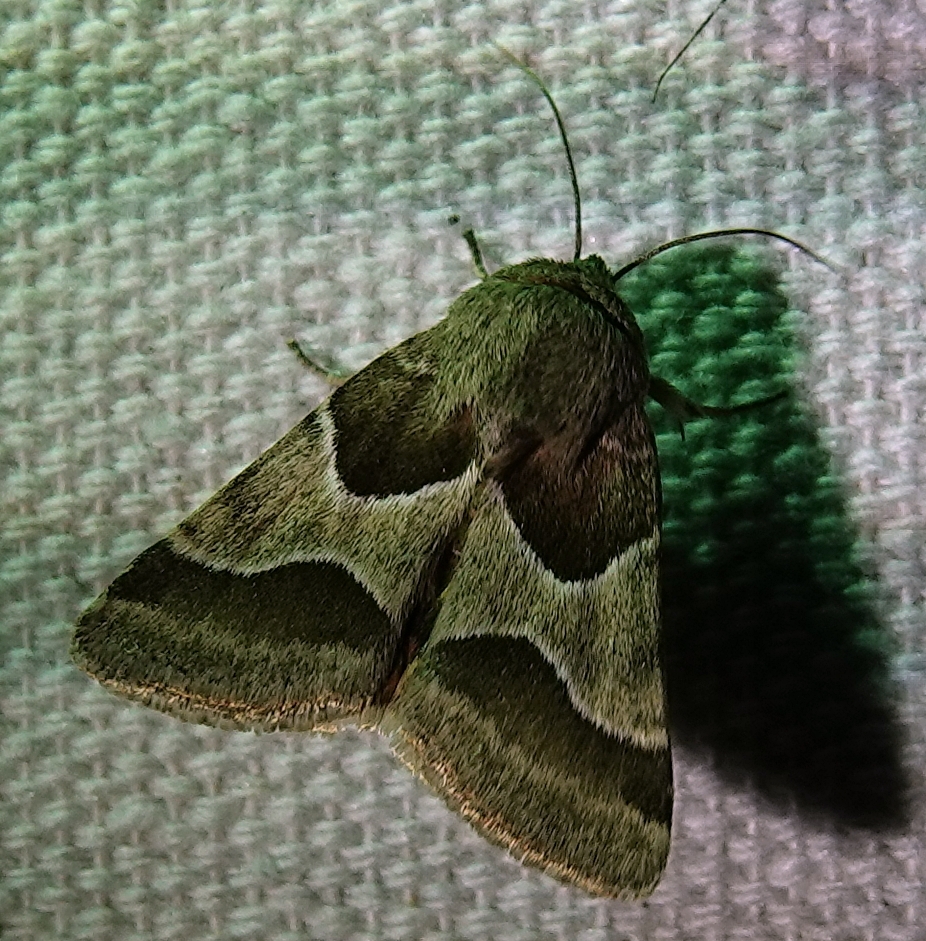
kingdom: Animalia
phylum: Arthropoda
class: Insecta
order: Lepidoptera
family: Noctuidae
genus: Schinia
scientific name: Schinia jaguarina
